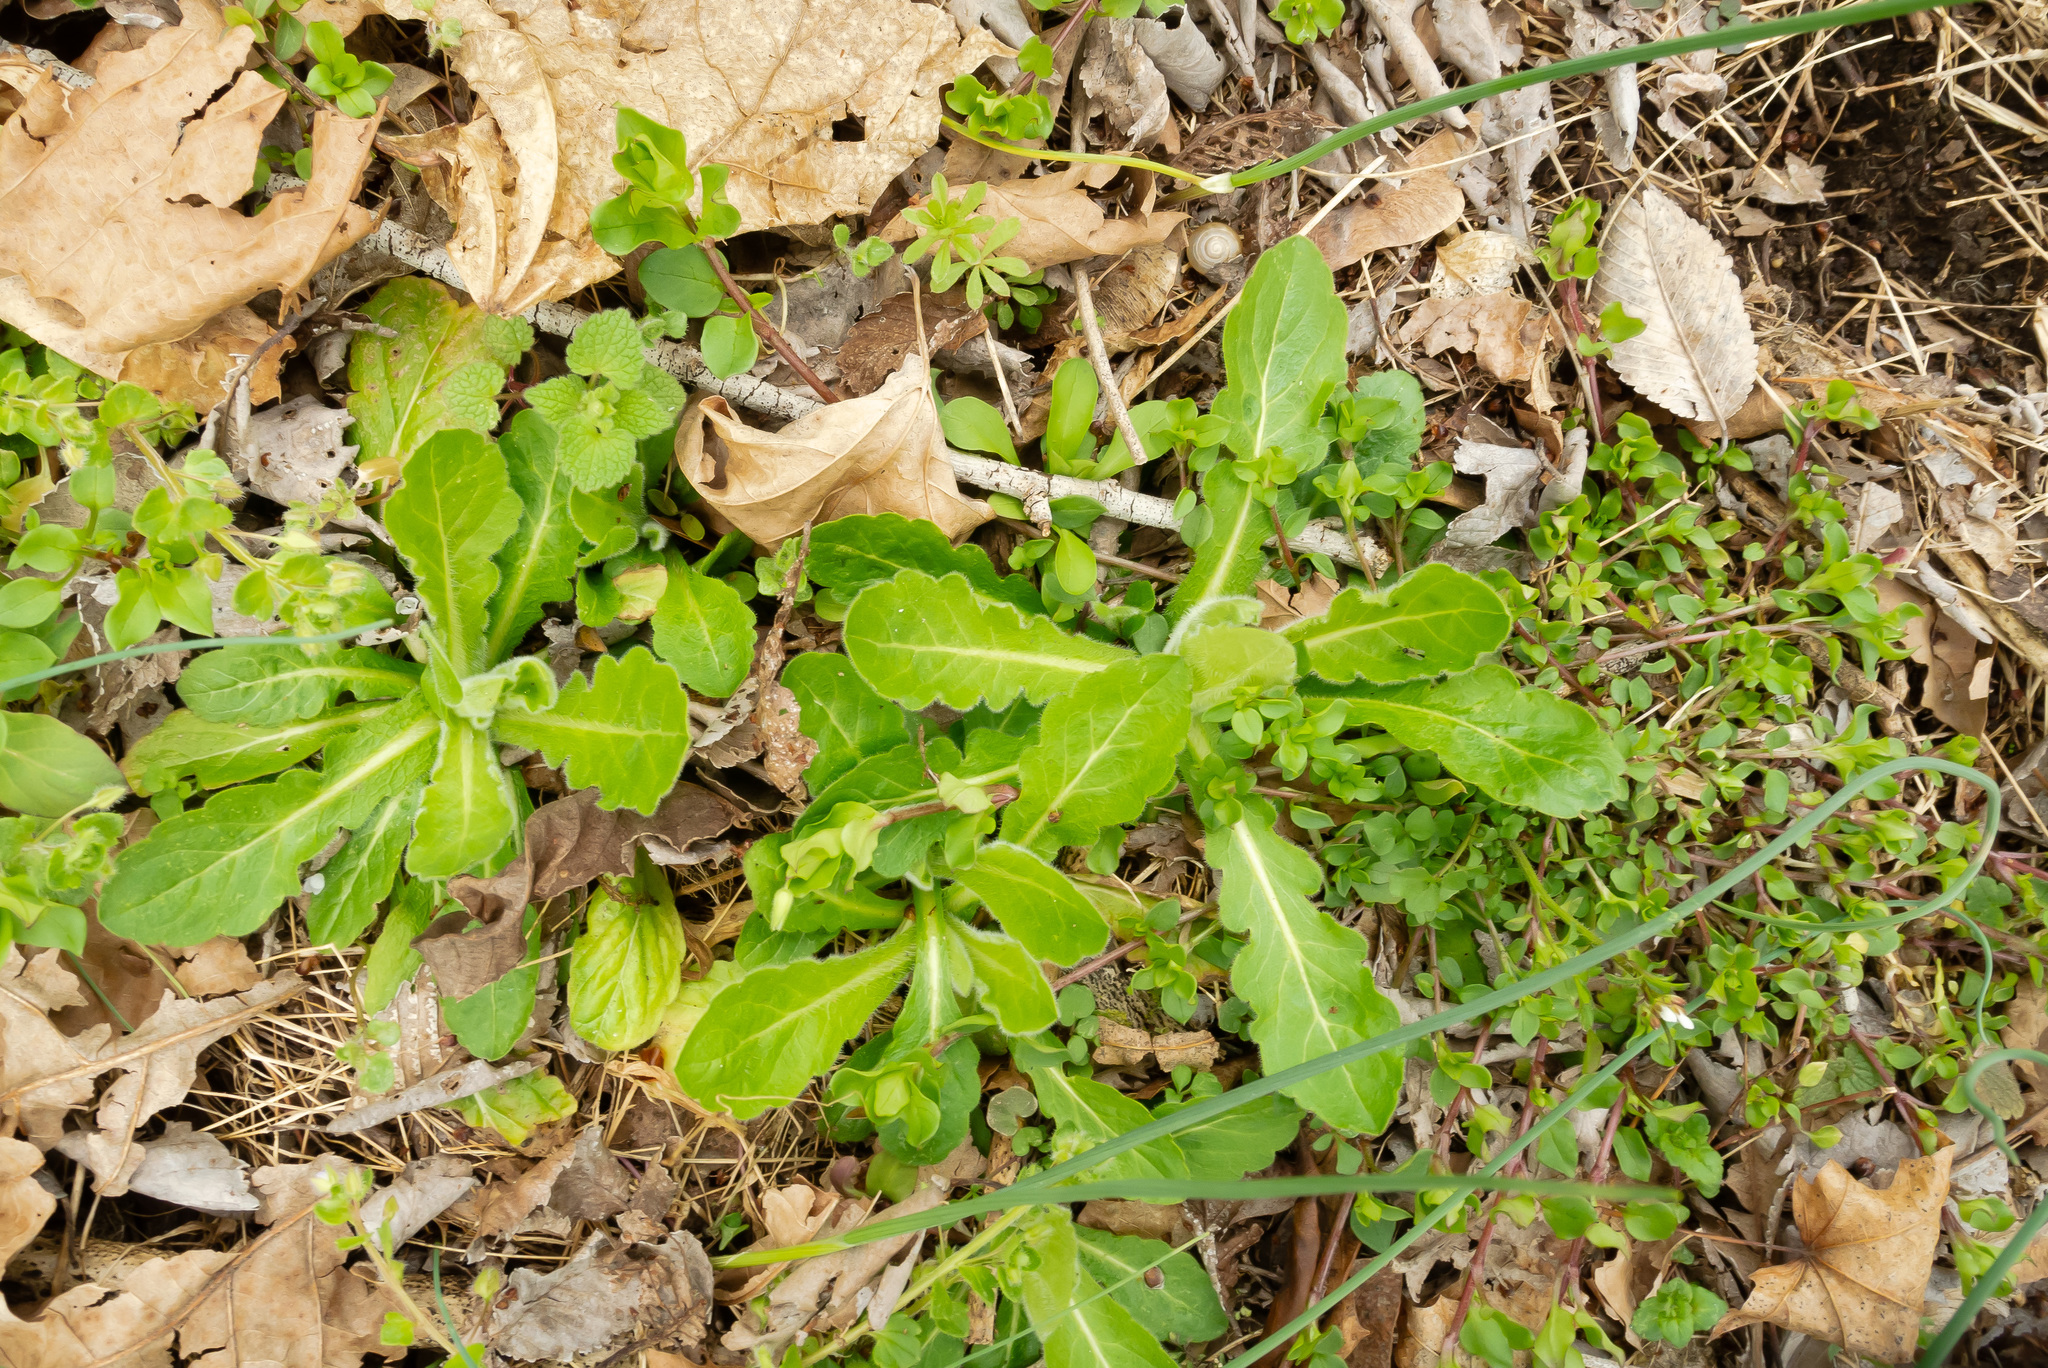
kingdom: Plantae
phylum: Tracheophyta
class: Magnoliopsida
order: Asterales
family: Asteraceae
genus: Erigeron
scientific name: Erigeron philadelphicus
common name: Robin's-plantain
